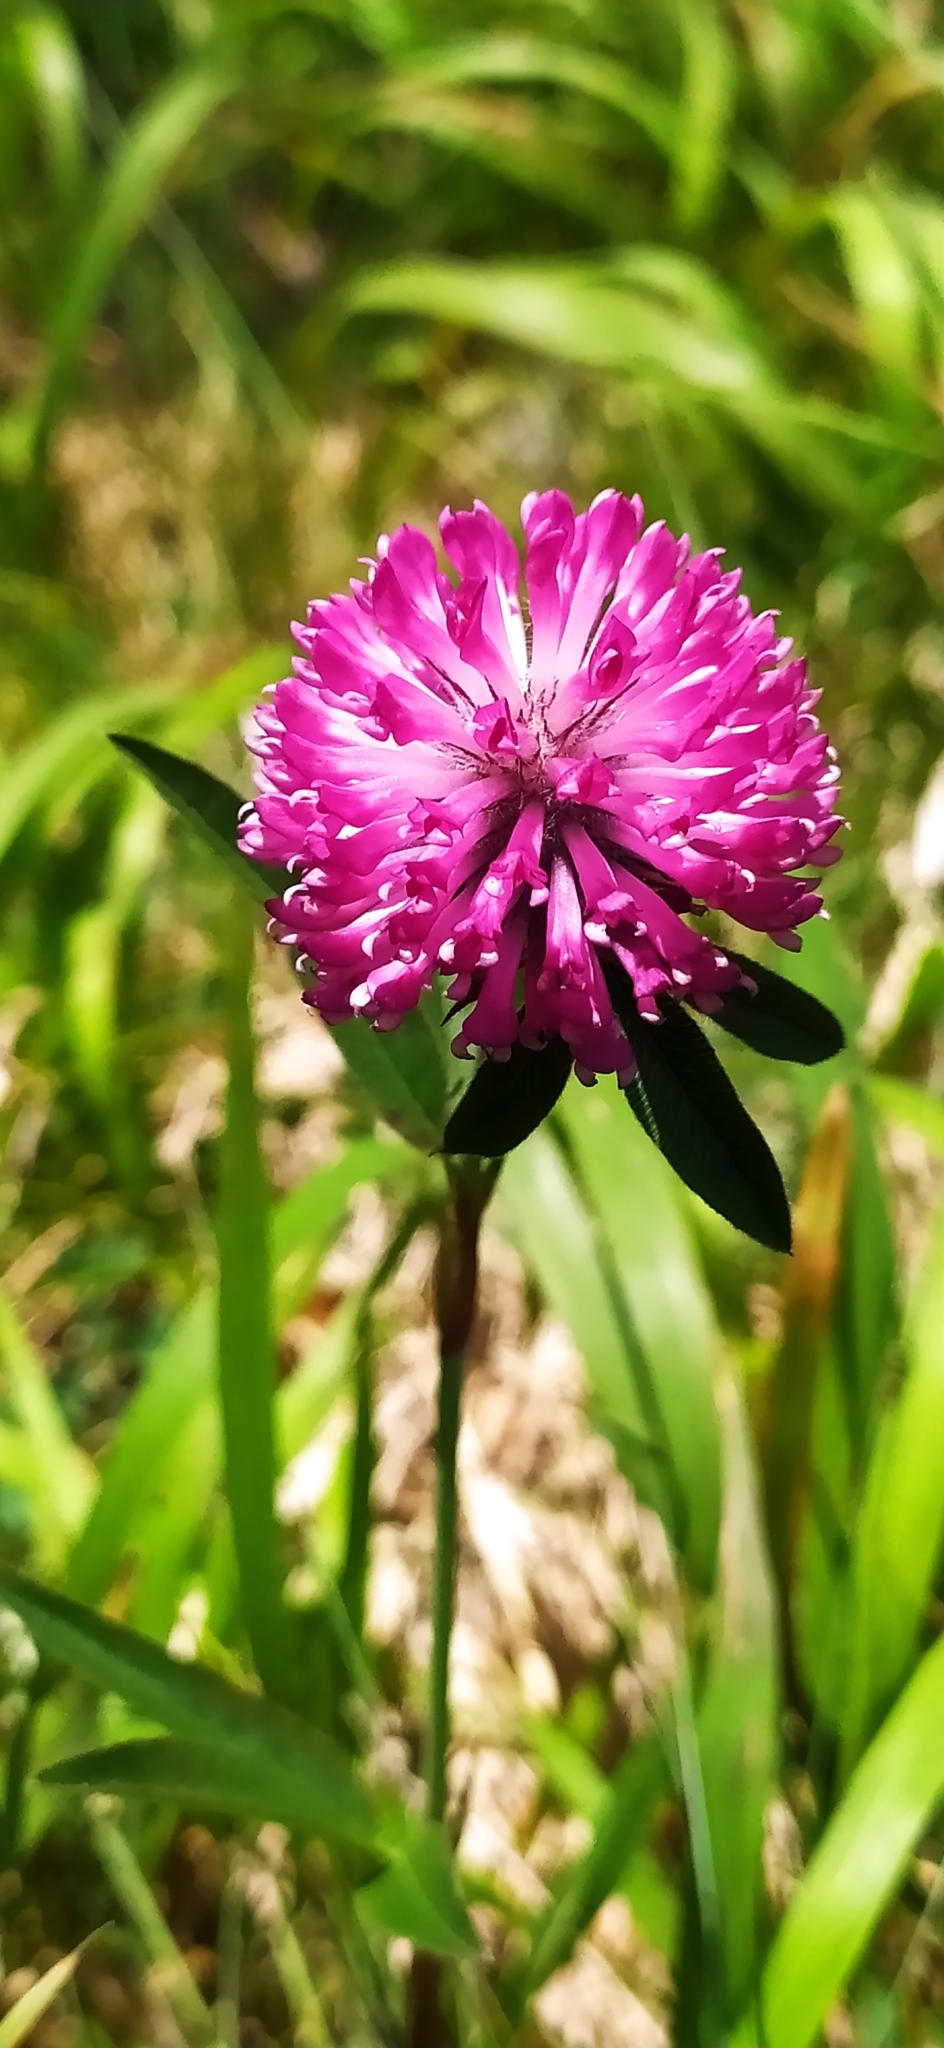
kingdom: Plantae
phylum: Tracheophyta
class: Magnoliopsida
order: Fabales
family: Fabaceae
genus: Trifolium
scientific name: Trifolium alpestre
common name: Owl-head clover
